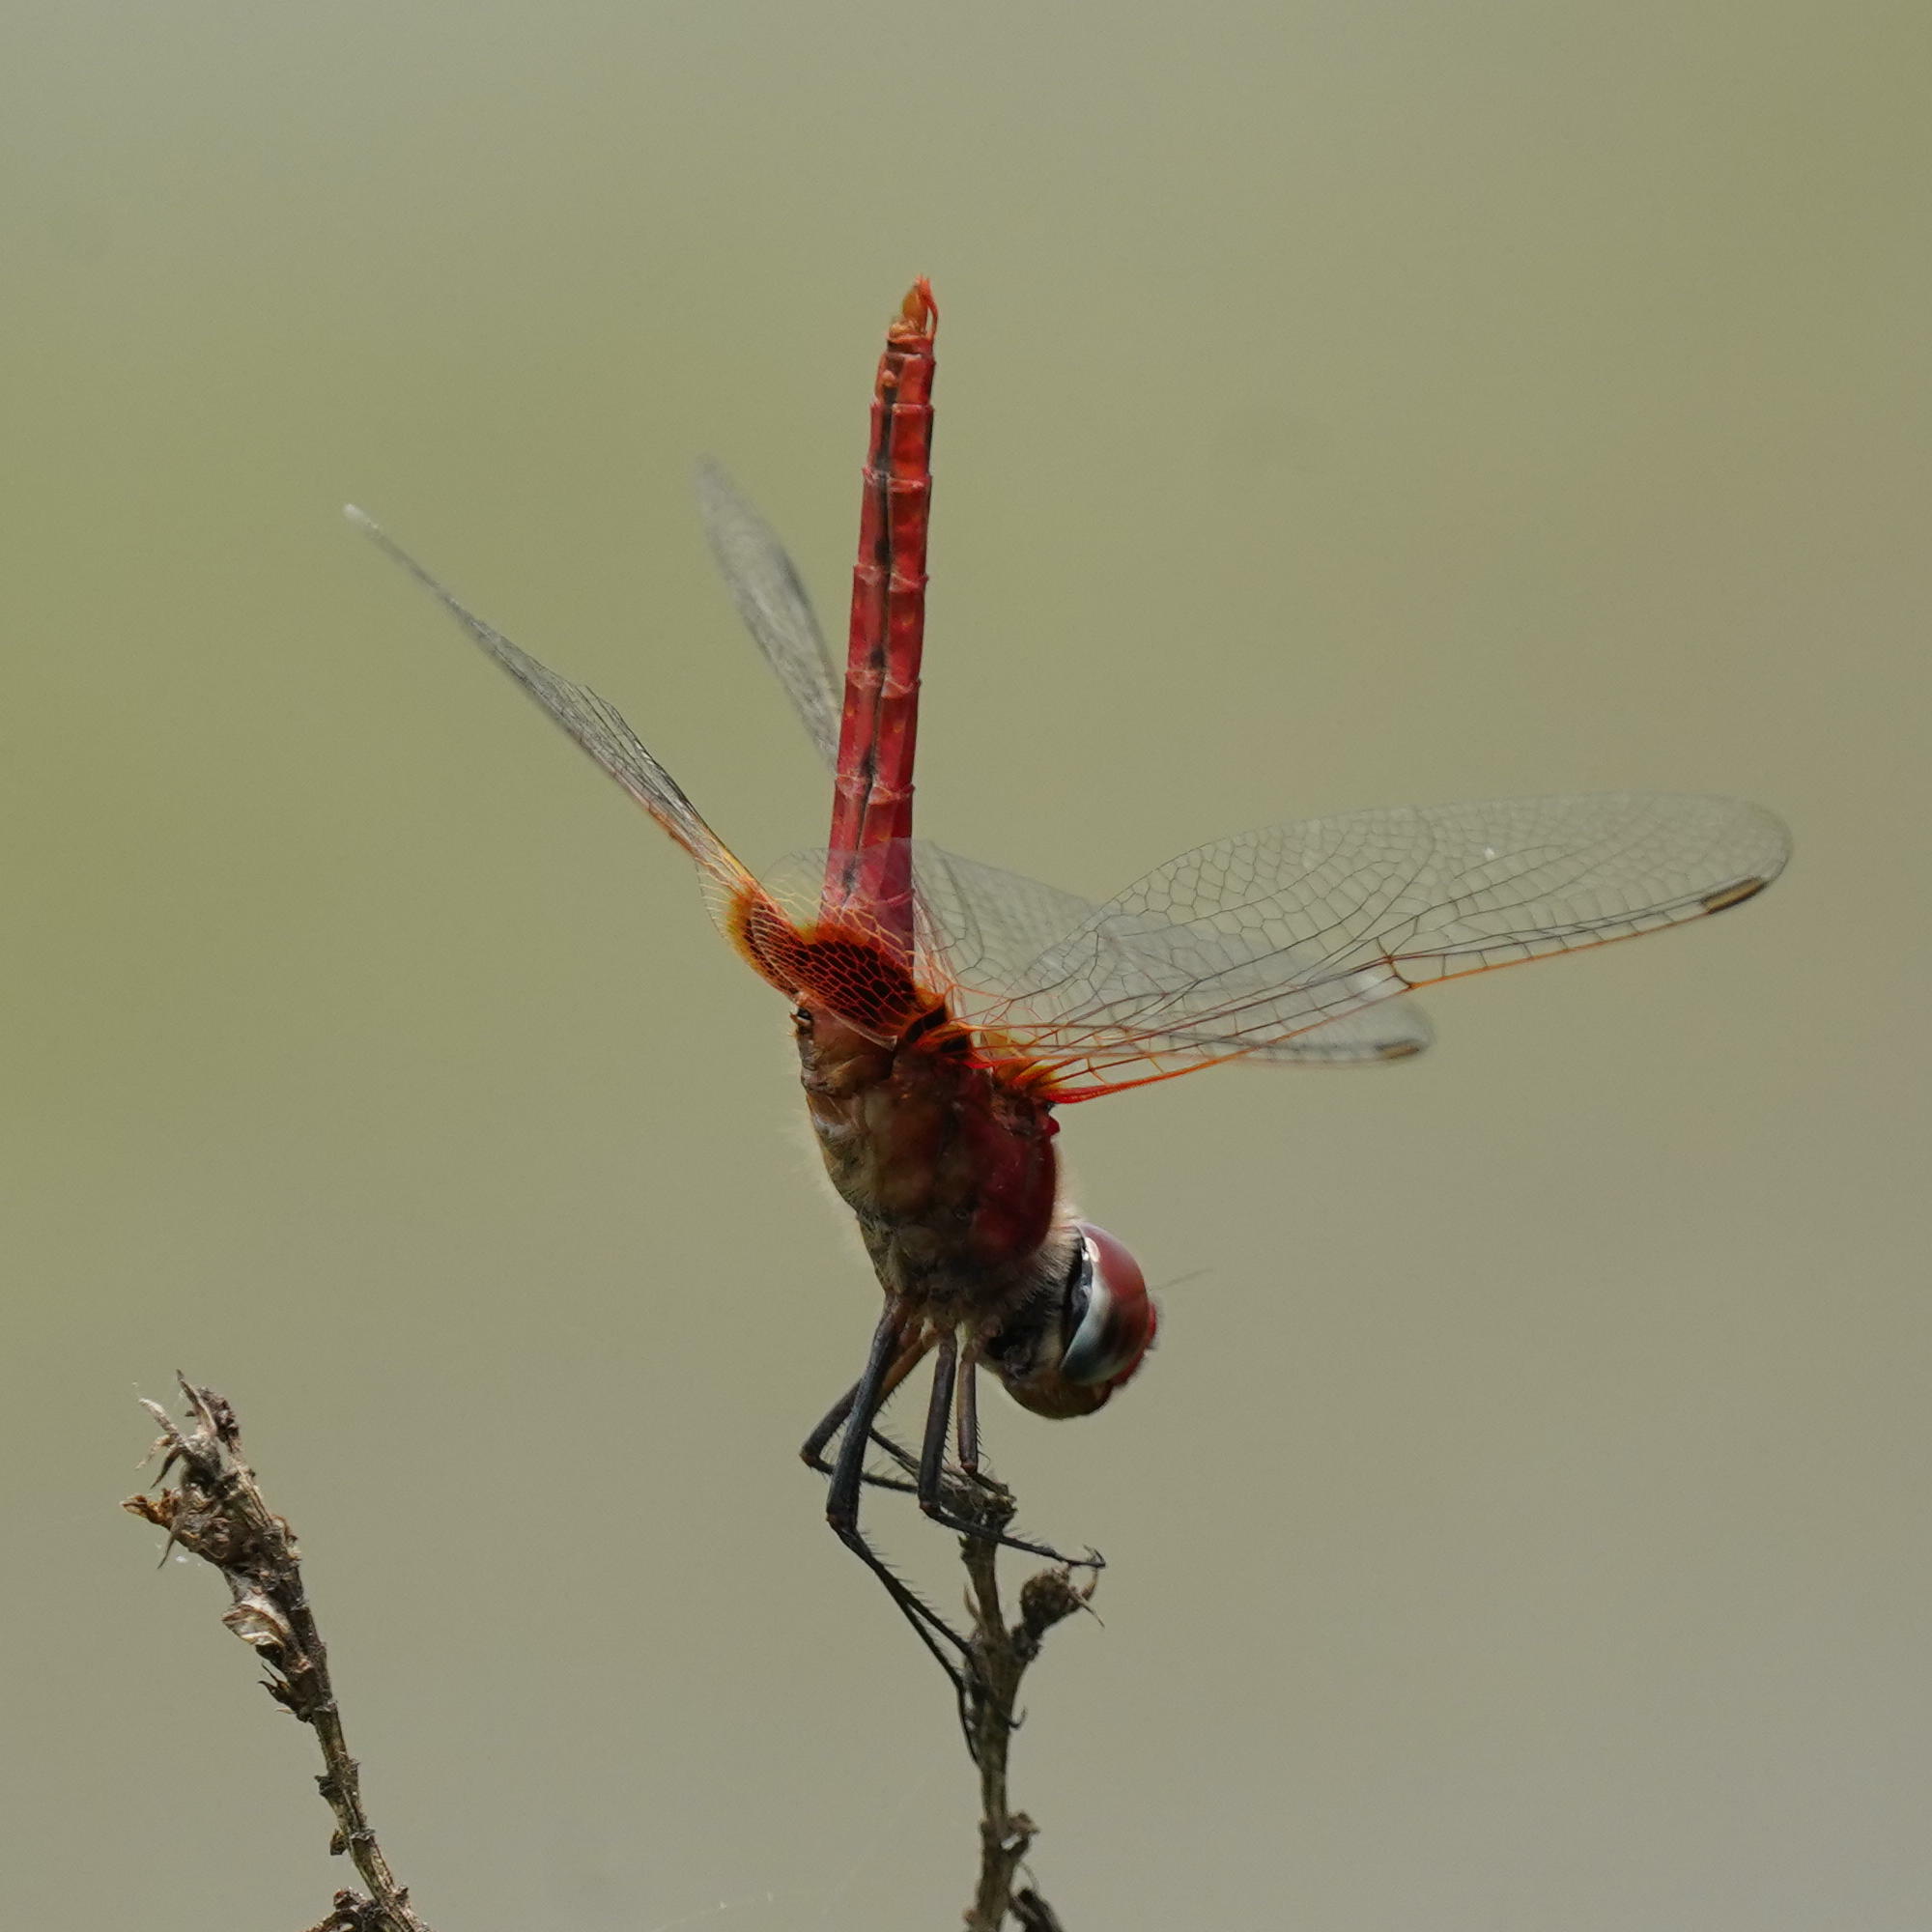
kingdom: Animalia
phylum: Arthropoda
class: Insecta
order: Odonata
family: Libellulidae
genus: Urothemis
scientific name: Urothemis signata
